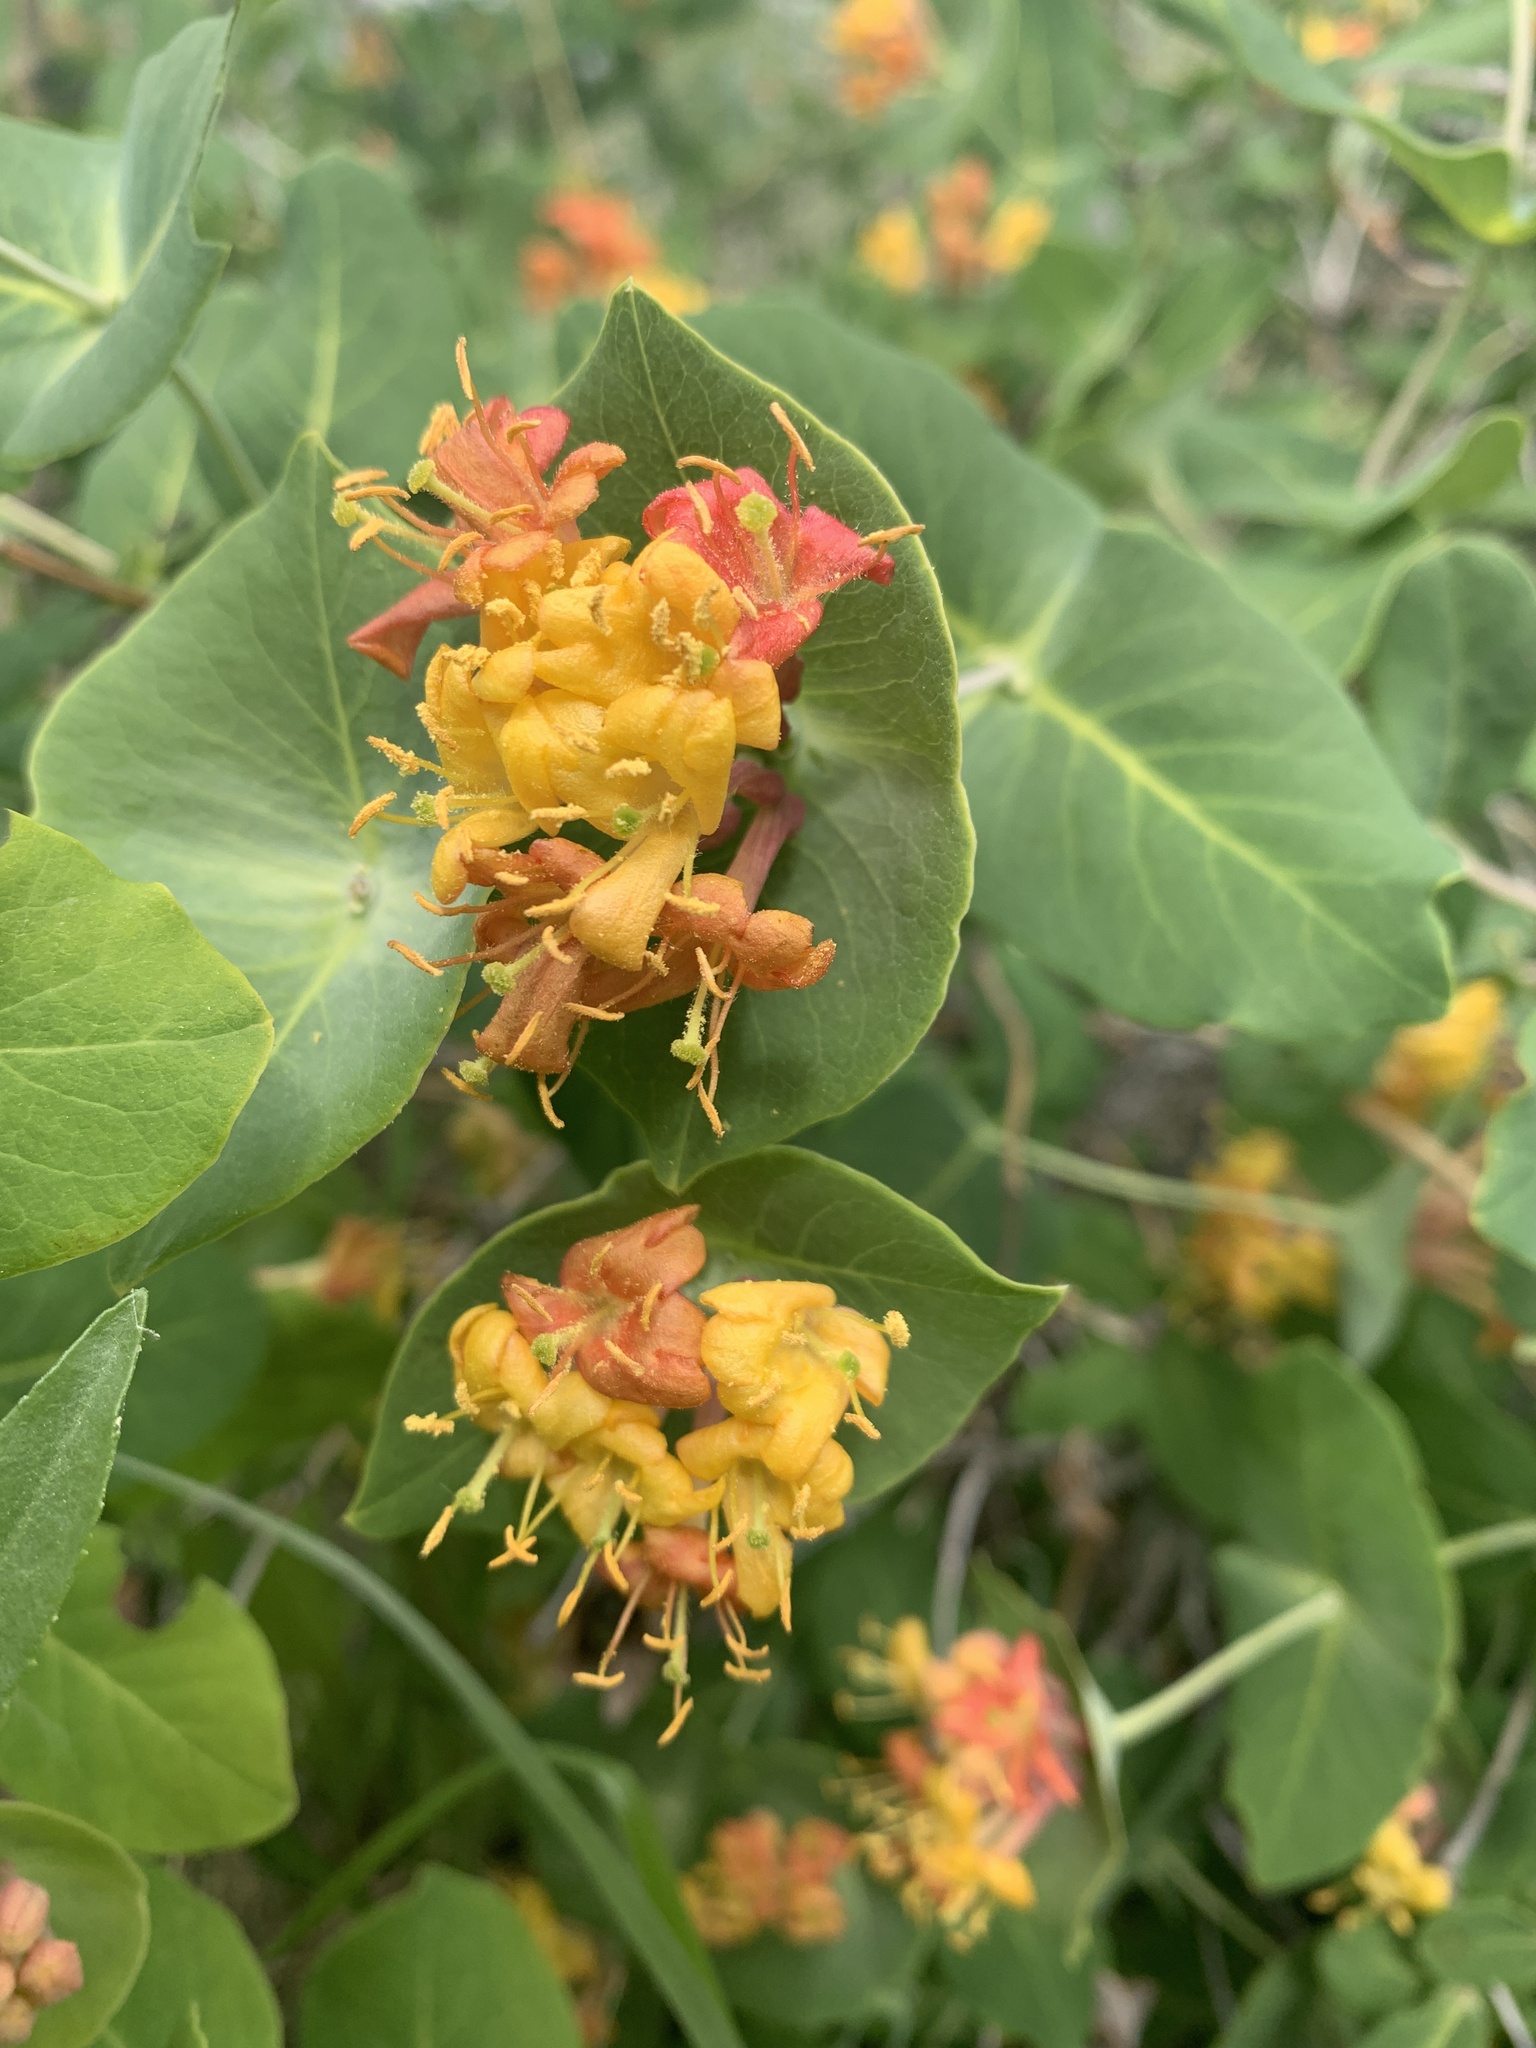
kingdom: Plantae
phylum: Tracheophyta
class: Magnoliopsida
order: Dipsacales
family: Caprifoliaceae
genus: Lonicera
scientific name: Lonicera dioica
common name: Limber honeysuckle
